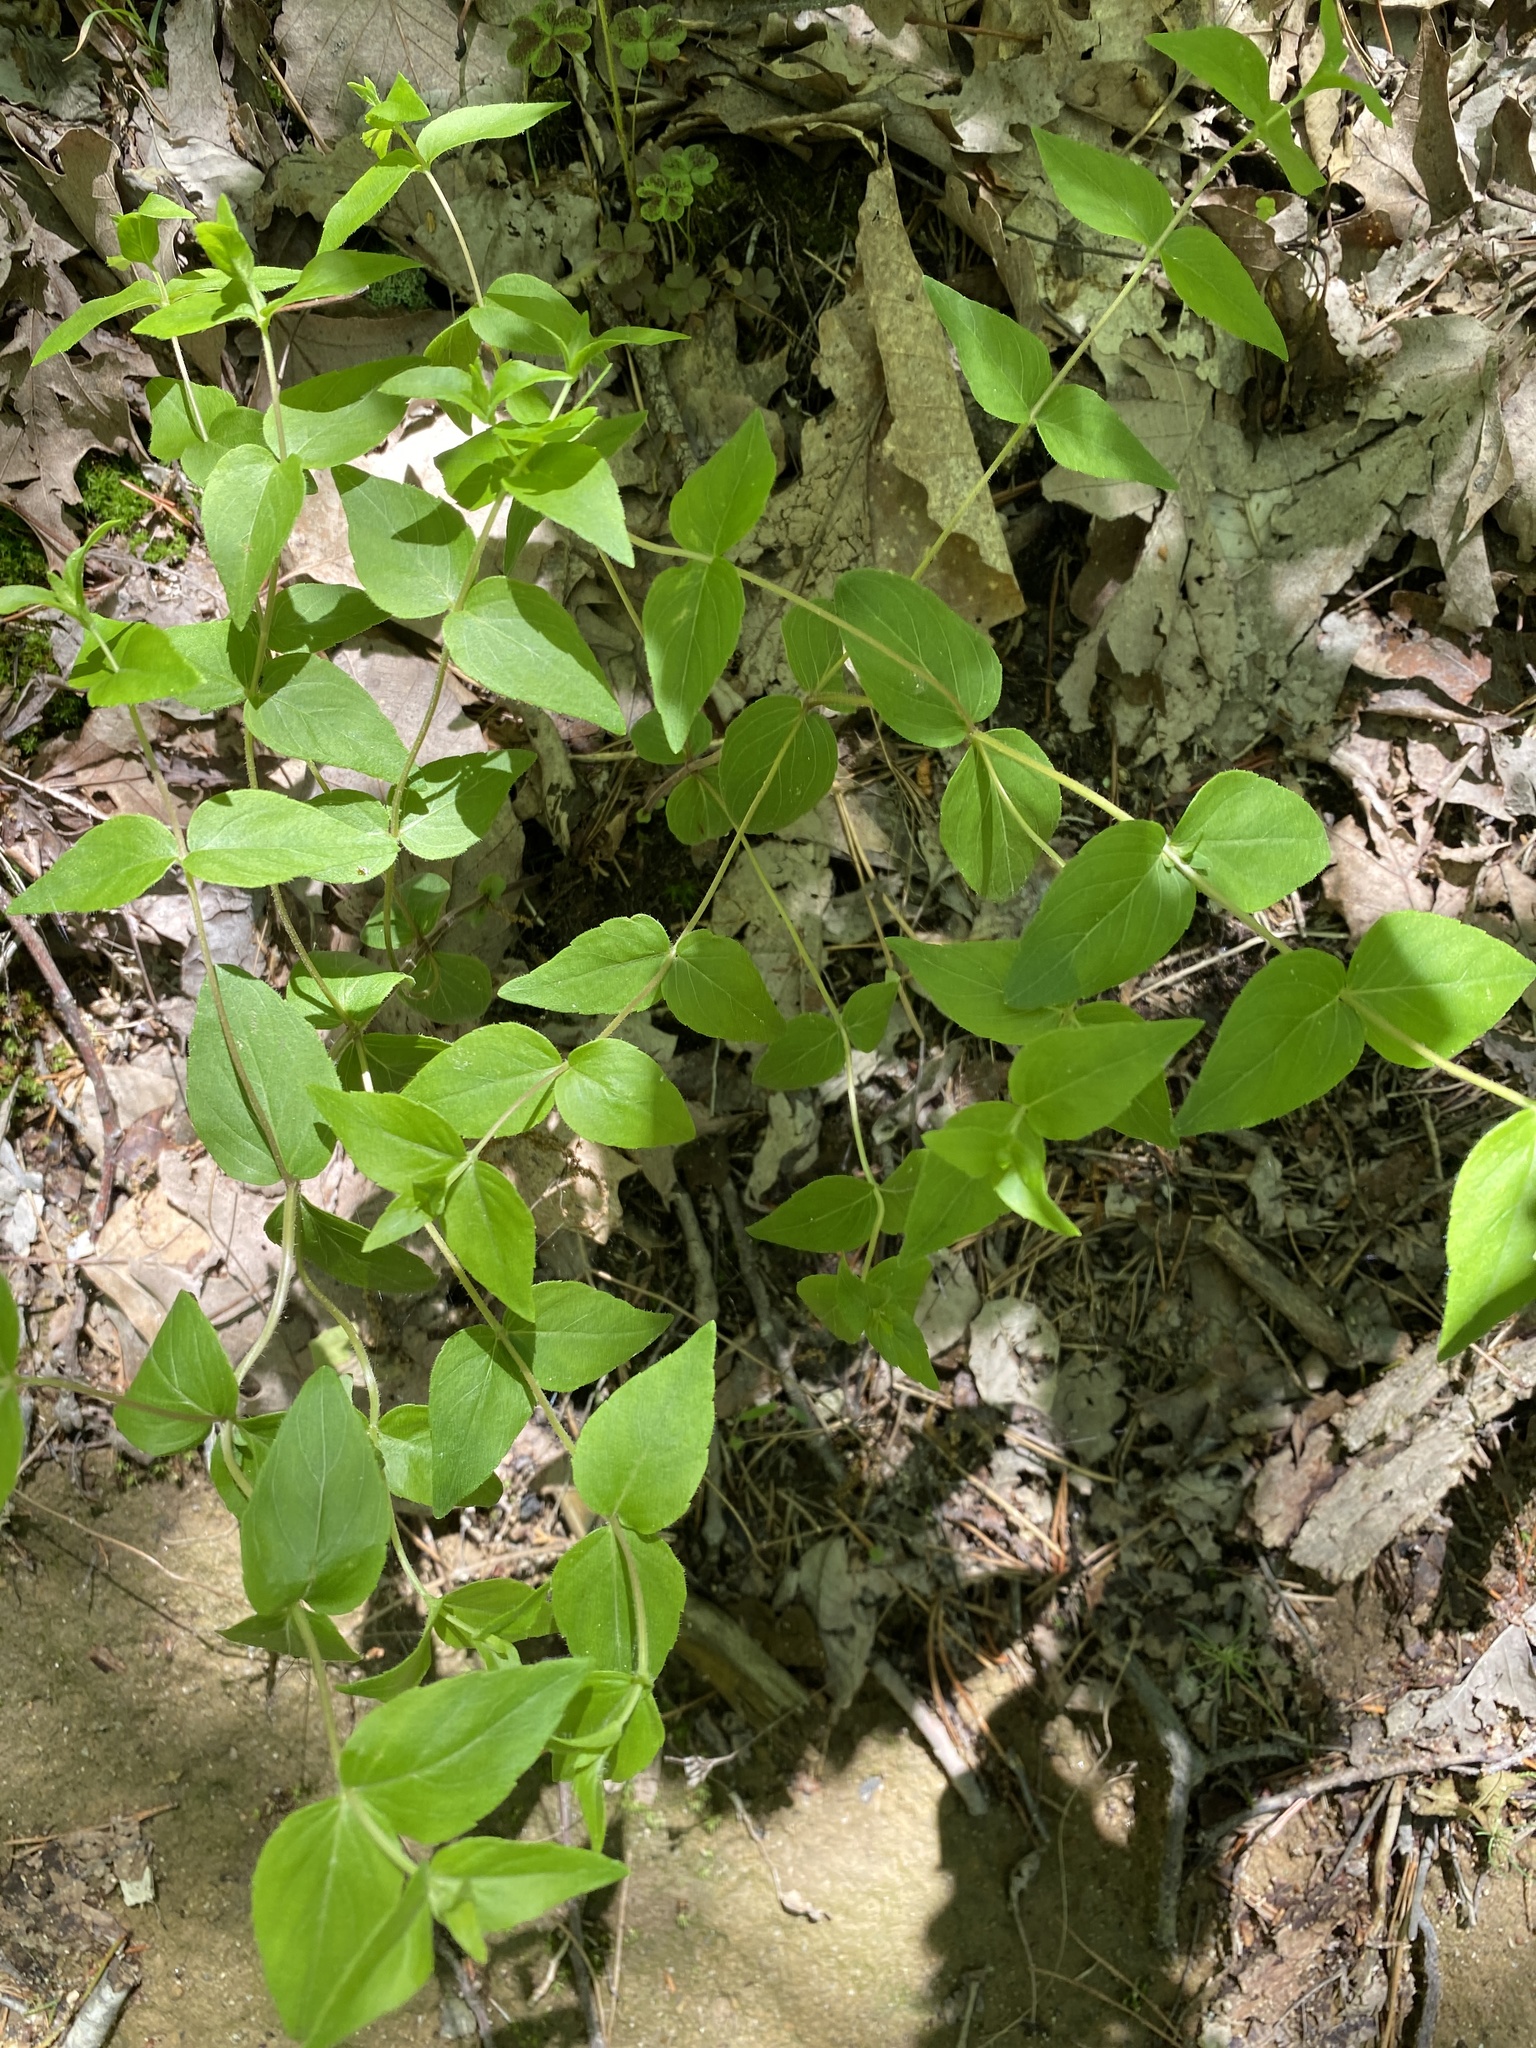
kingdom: Plantae
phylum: Tracheophyta
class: Magnoliopsida
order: Lamiales
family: Lamiaceae
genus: Cunila
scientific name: Cunila origanoides
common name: American dittany
